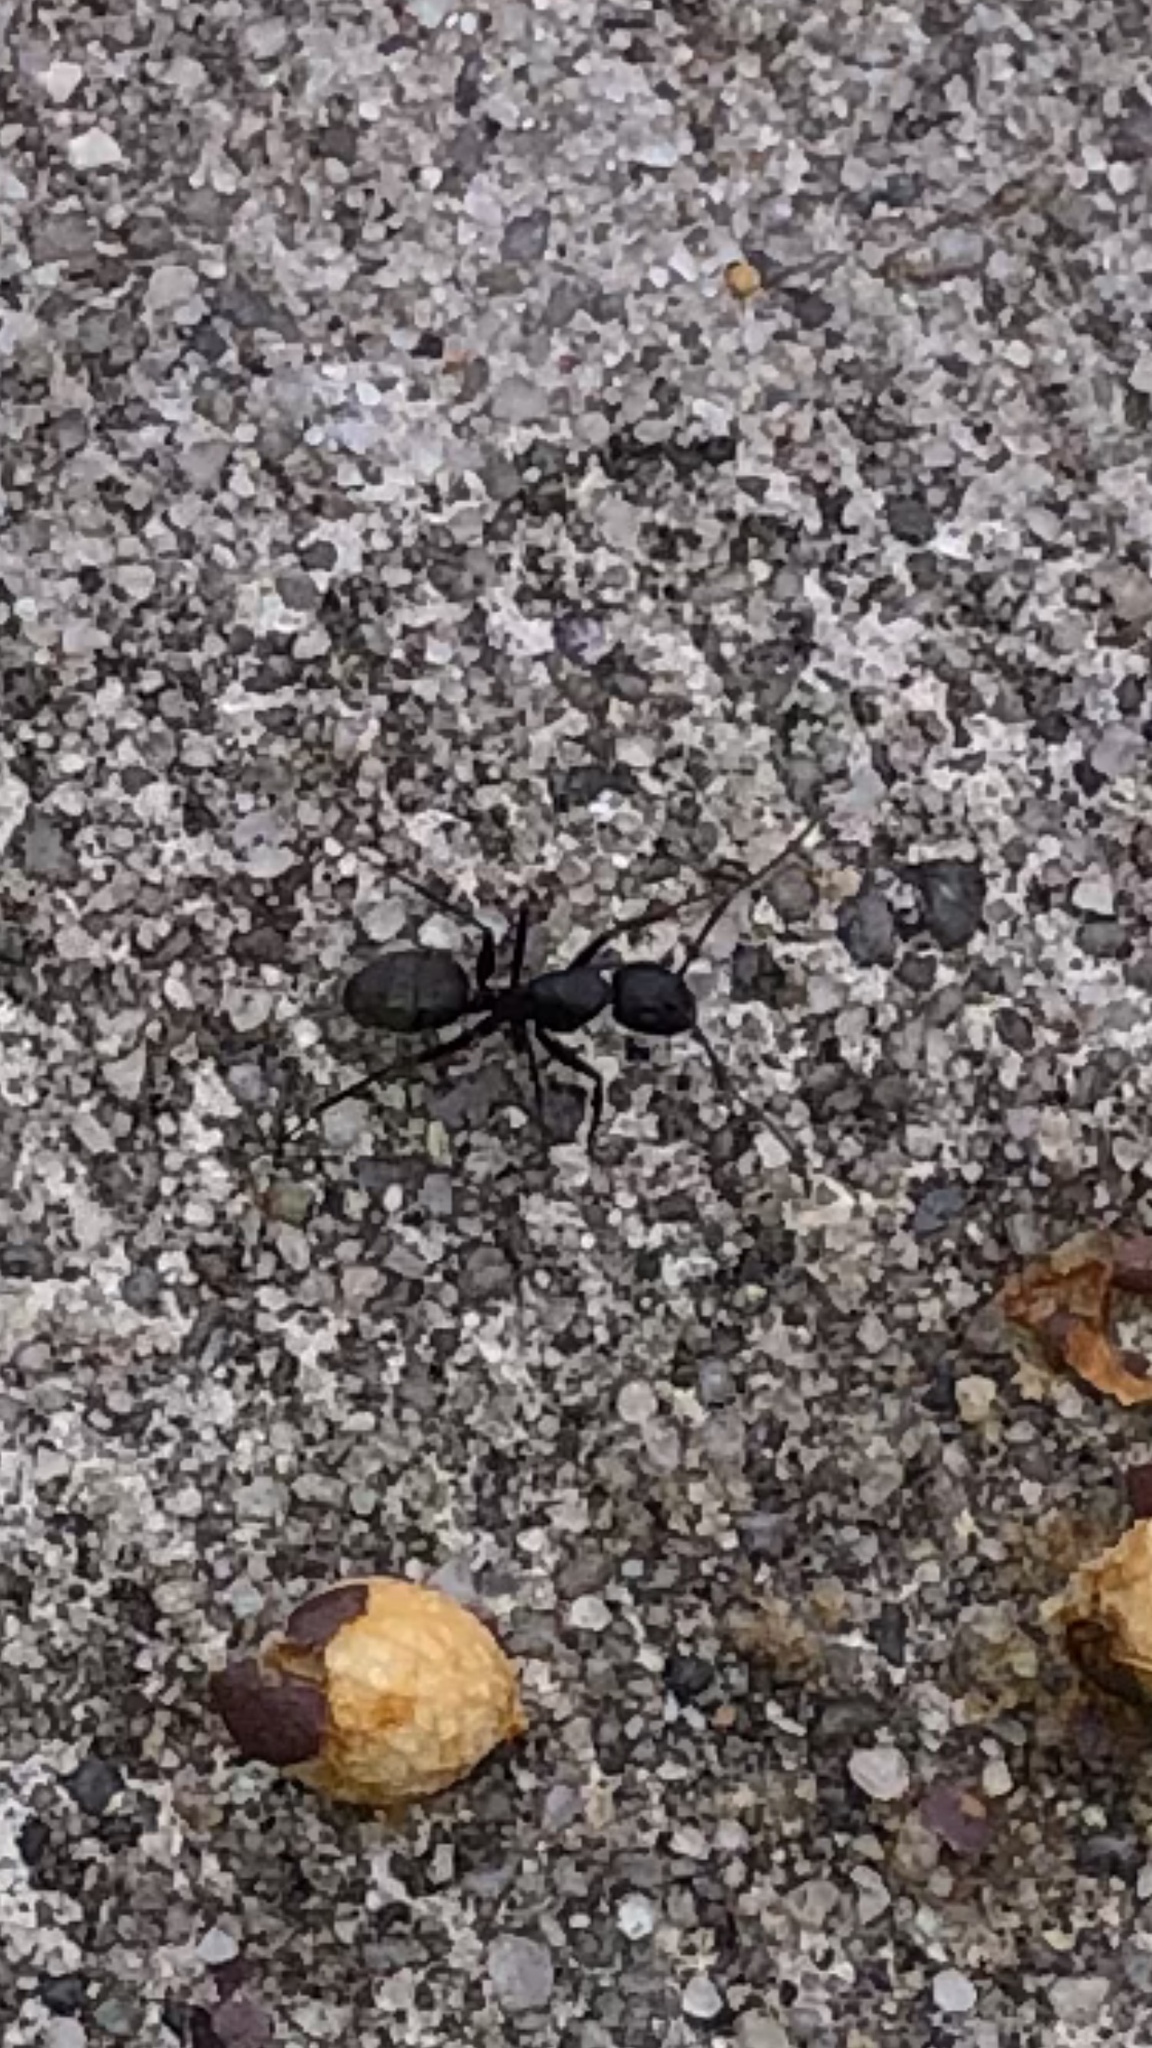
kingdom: Animalia
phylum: Arthropoda
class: Insecta
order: Hymenoptera
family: Formicidae
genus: Camponotus
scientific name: Camponotus pennsylvanicus
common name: Black carpenter ant
